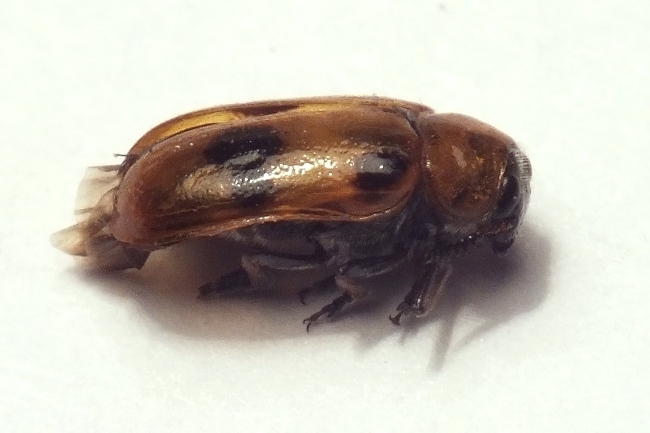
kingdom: Animalia
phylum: Arthropoda
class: Insecta
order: Coleoptera
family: Chrysomelidae
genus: Tituboea
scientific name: Tituboea macropus
